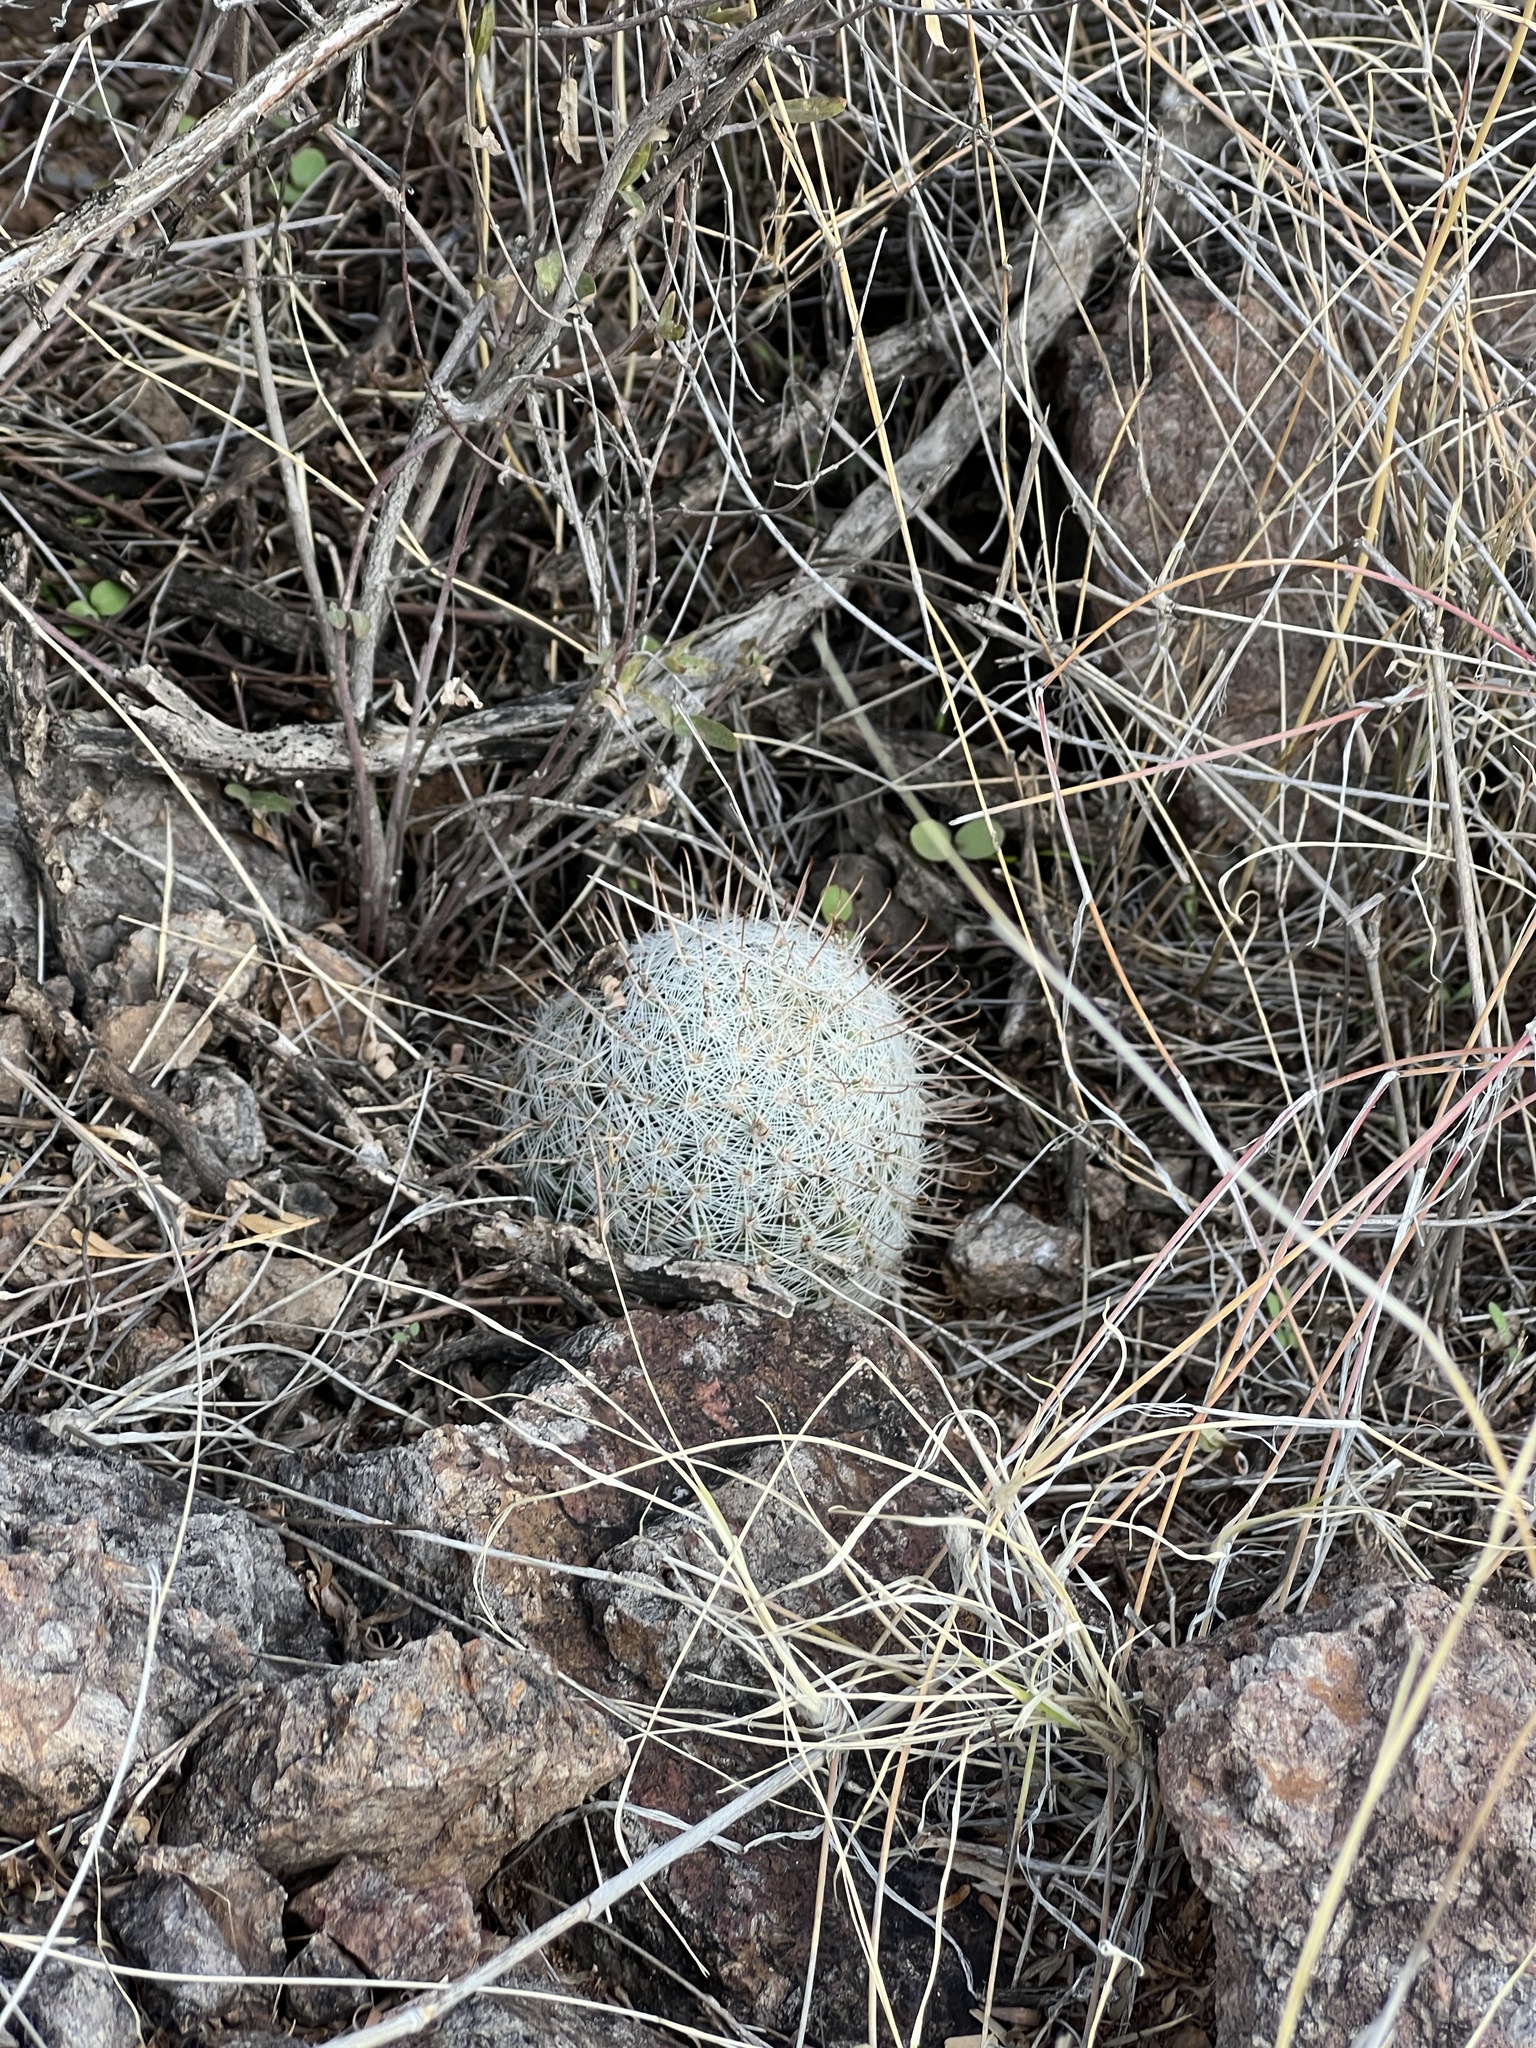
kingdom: Plantae
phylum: Tracheophyta
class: Magnoliopsida
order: Caryophyllales
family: Cactaceae
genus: Cochemiea
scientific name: Cochemiea grahamii
